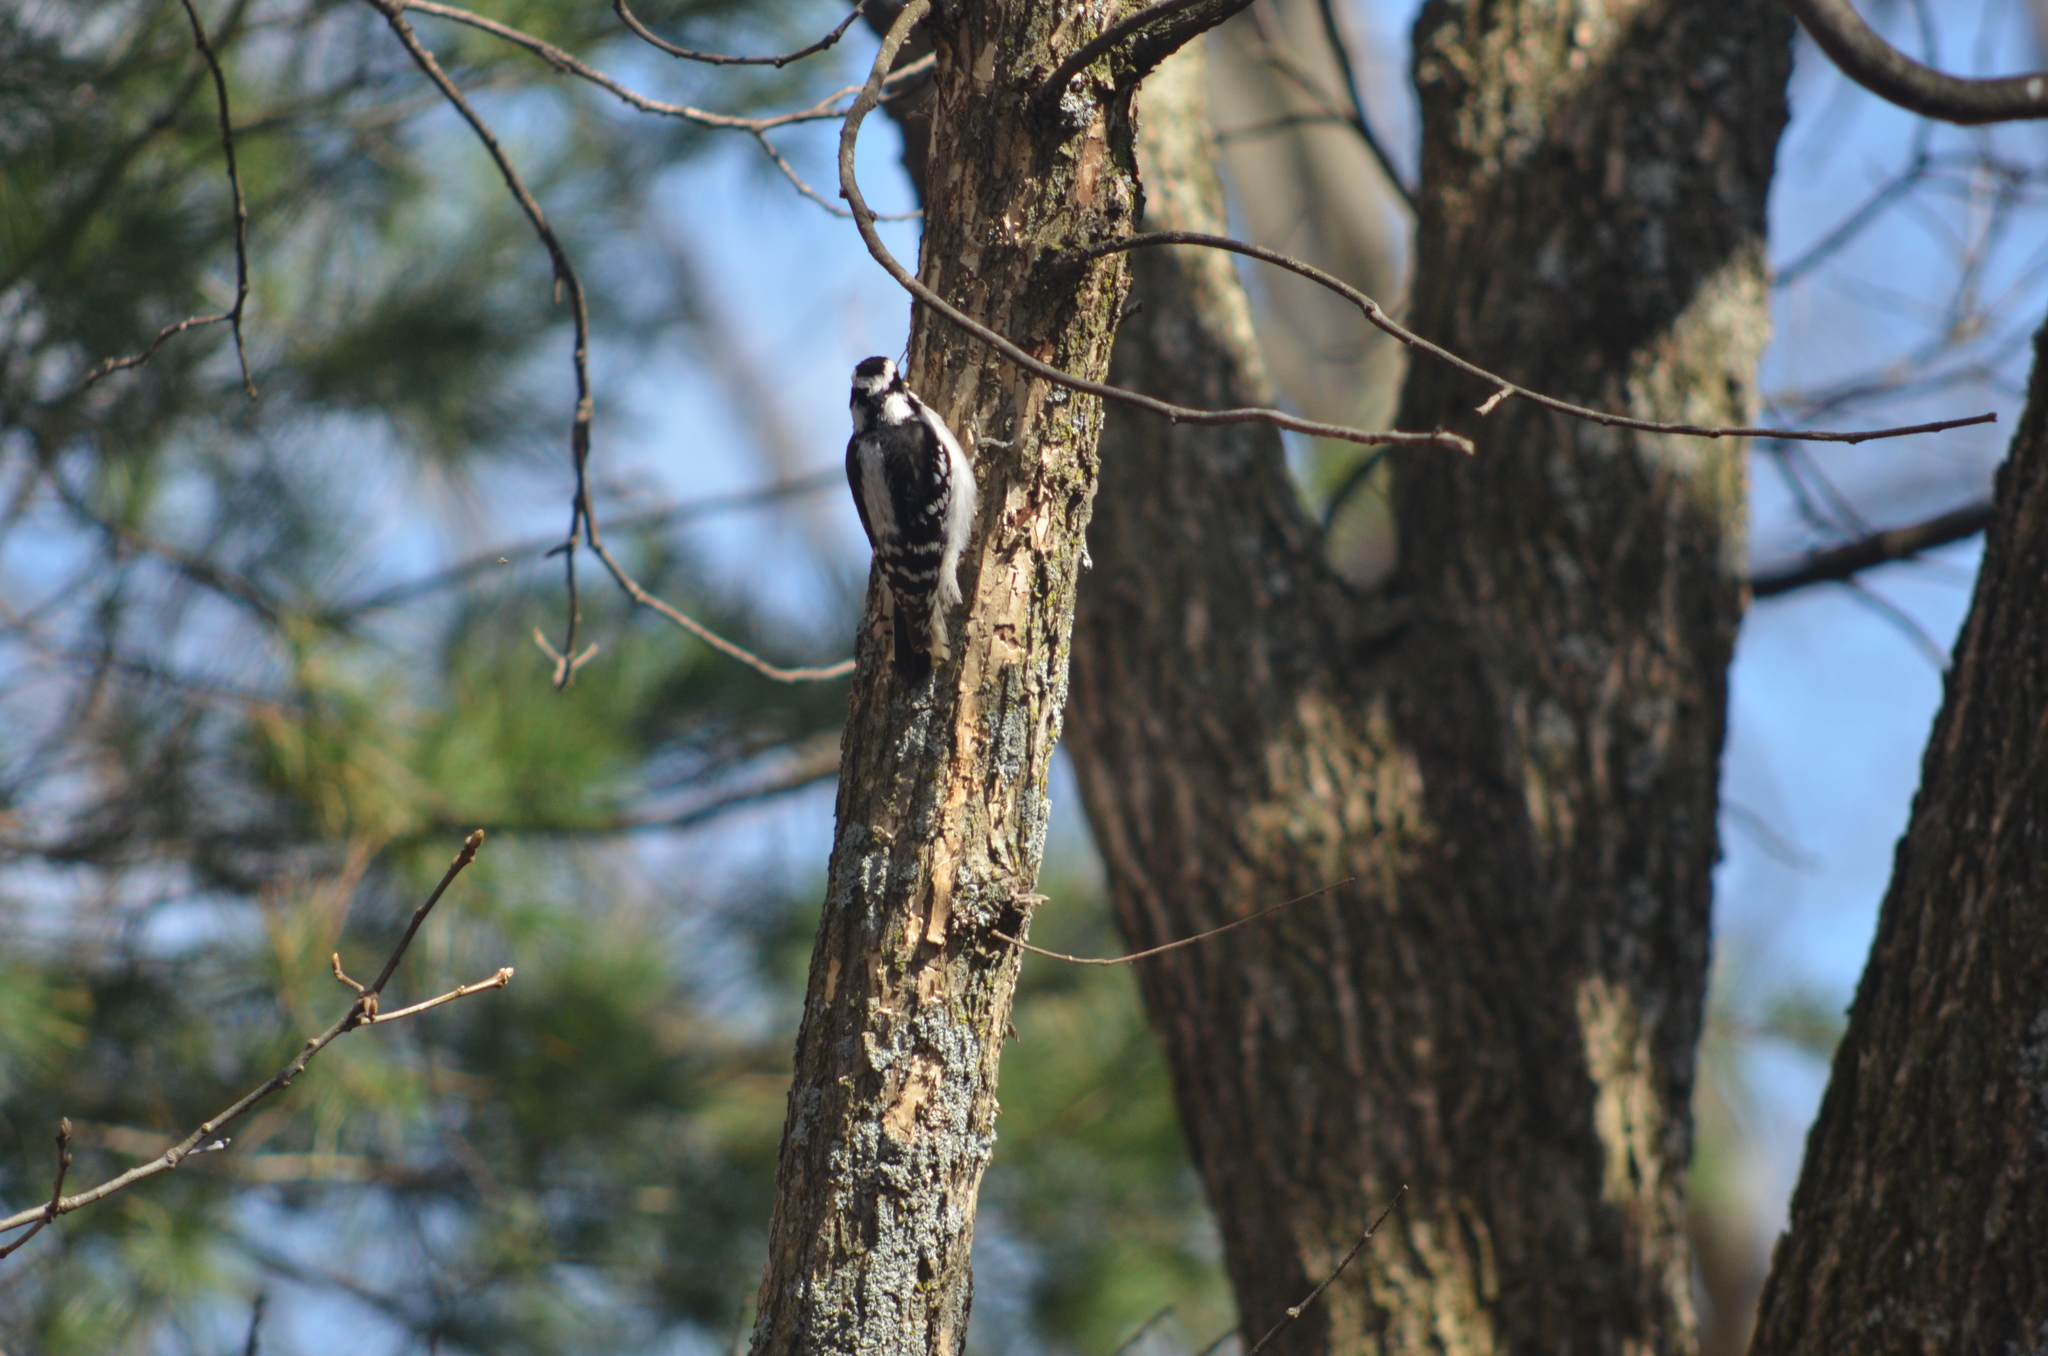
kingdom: Animalia
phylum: Chordata
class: Aves
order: Piciformes
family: Picidae
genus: Leuconotopicus
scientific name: Leuconotopicus villosus
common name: Hairy woodpecker
